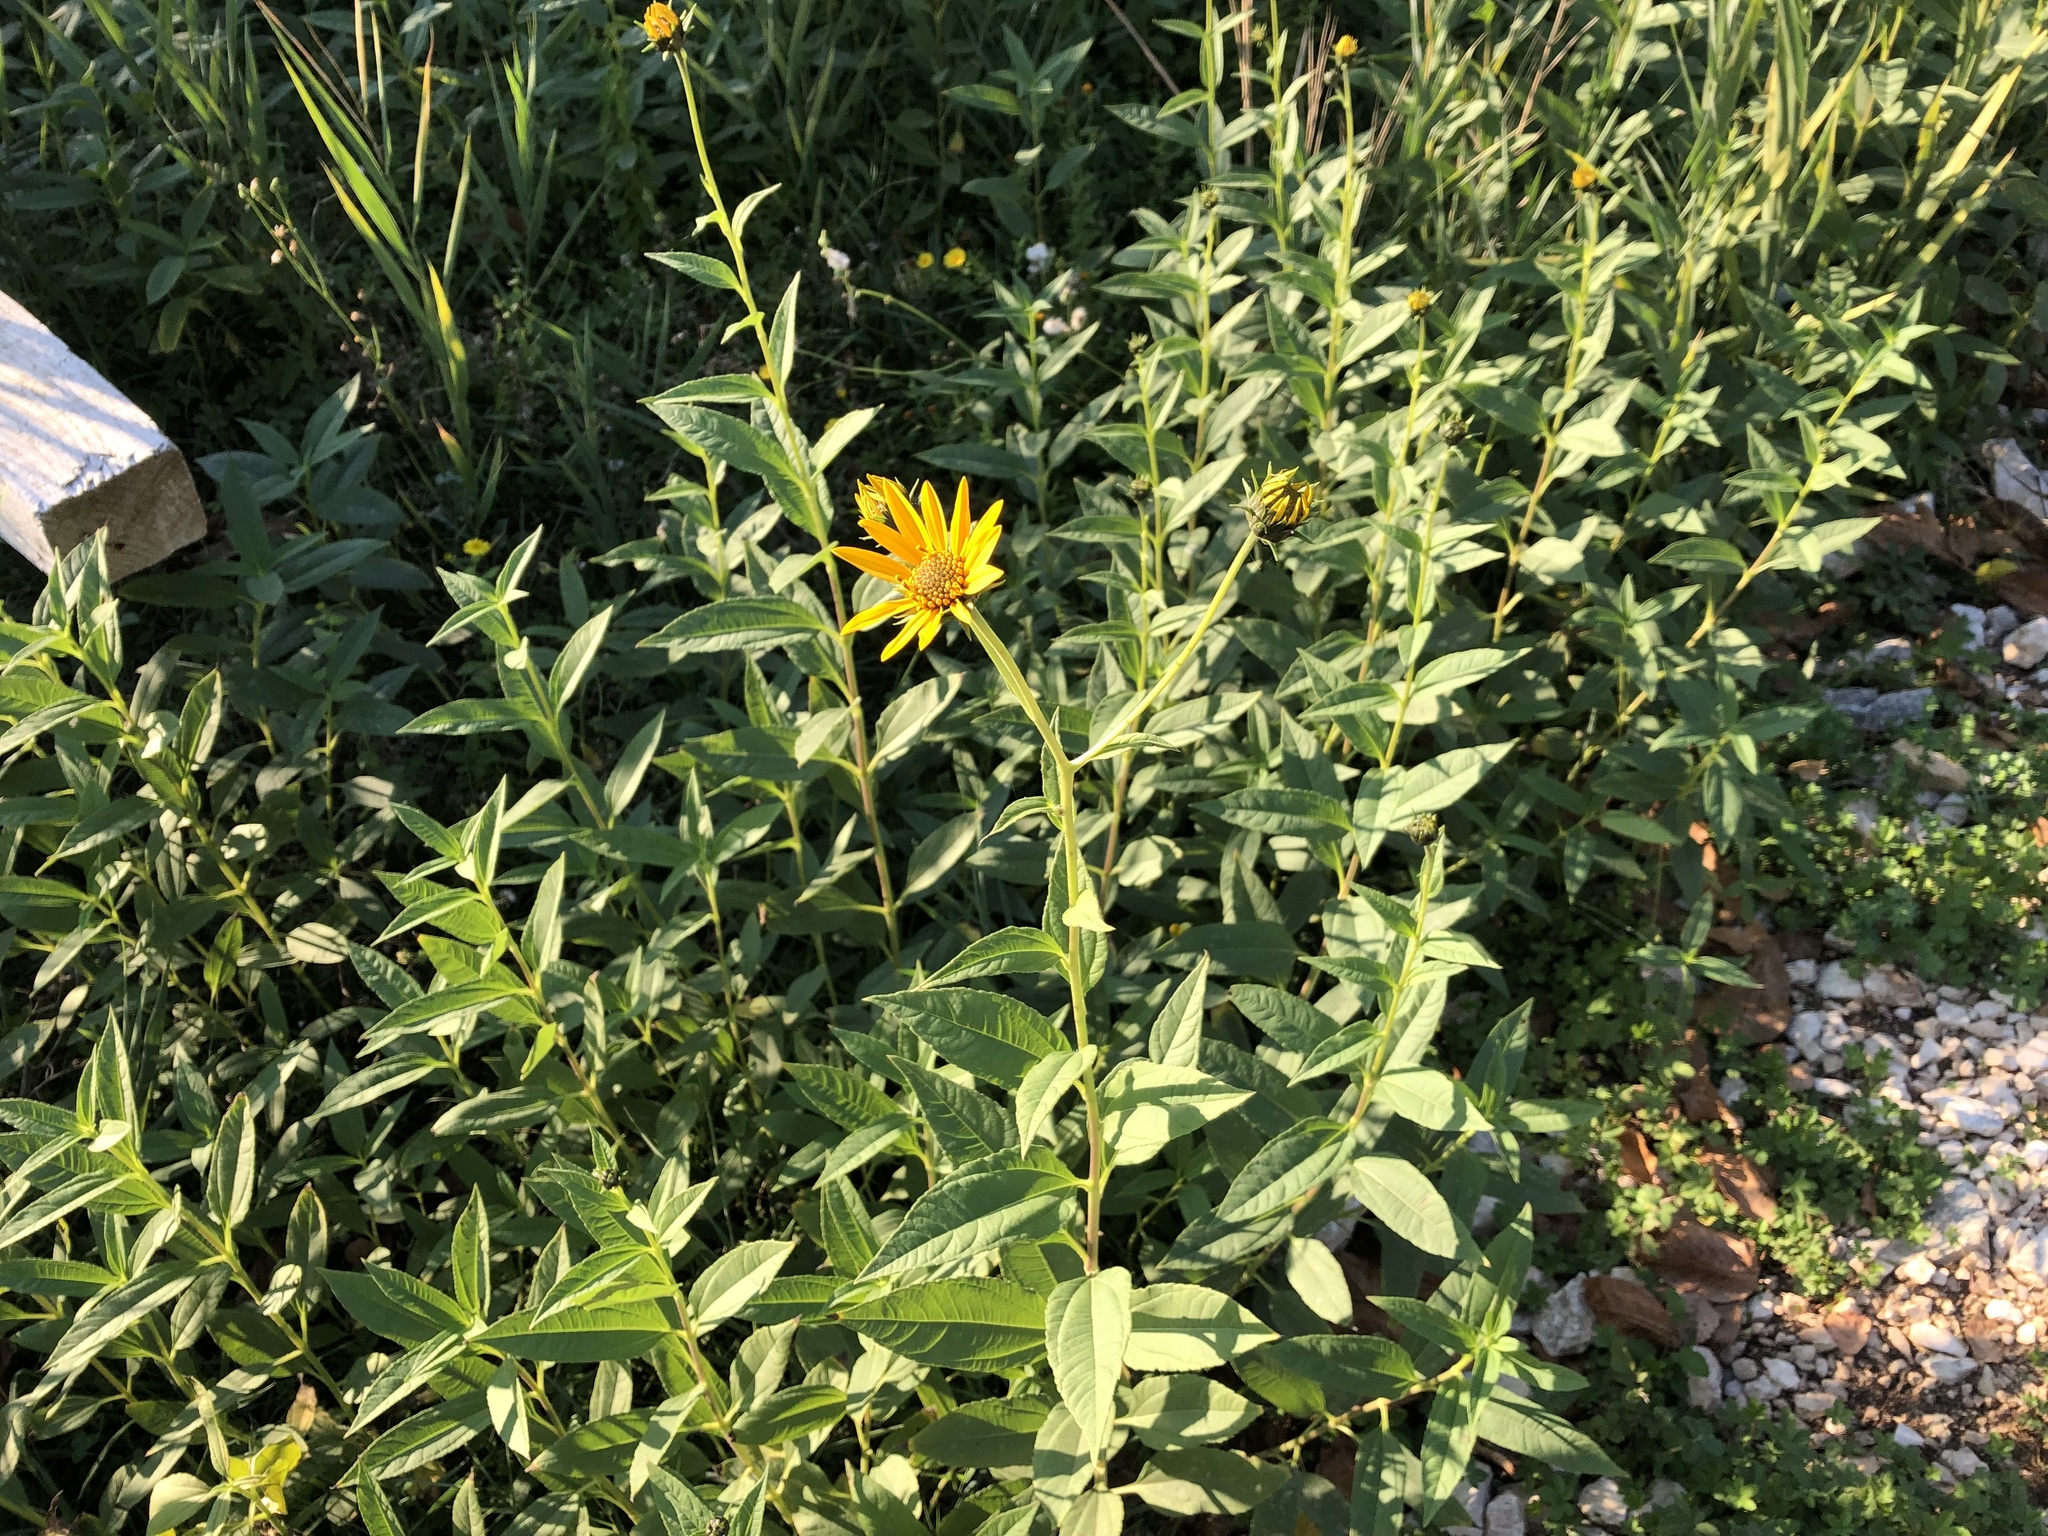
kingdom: Plantae
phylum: Tracheophyta
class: Magnoliopsida
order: Asterales
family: Asteraceae
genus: Helianthus
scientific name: Helianthus tuberosus
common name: Jerusalem artichoke
